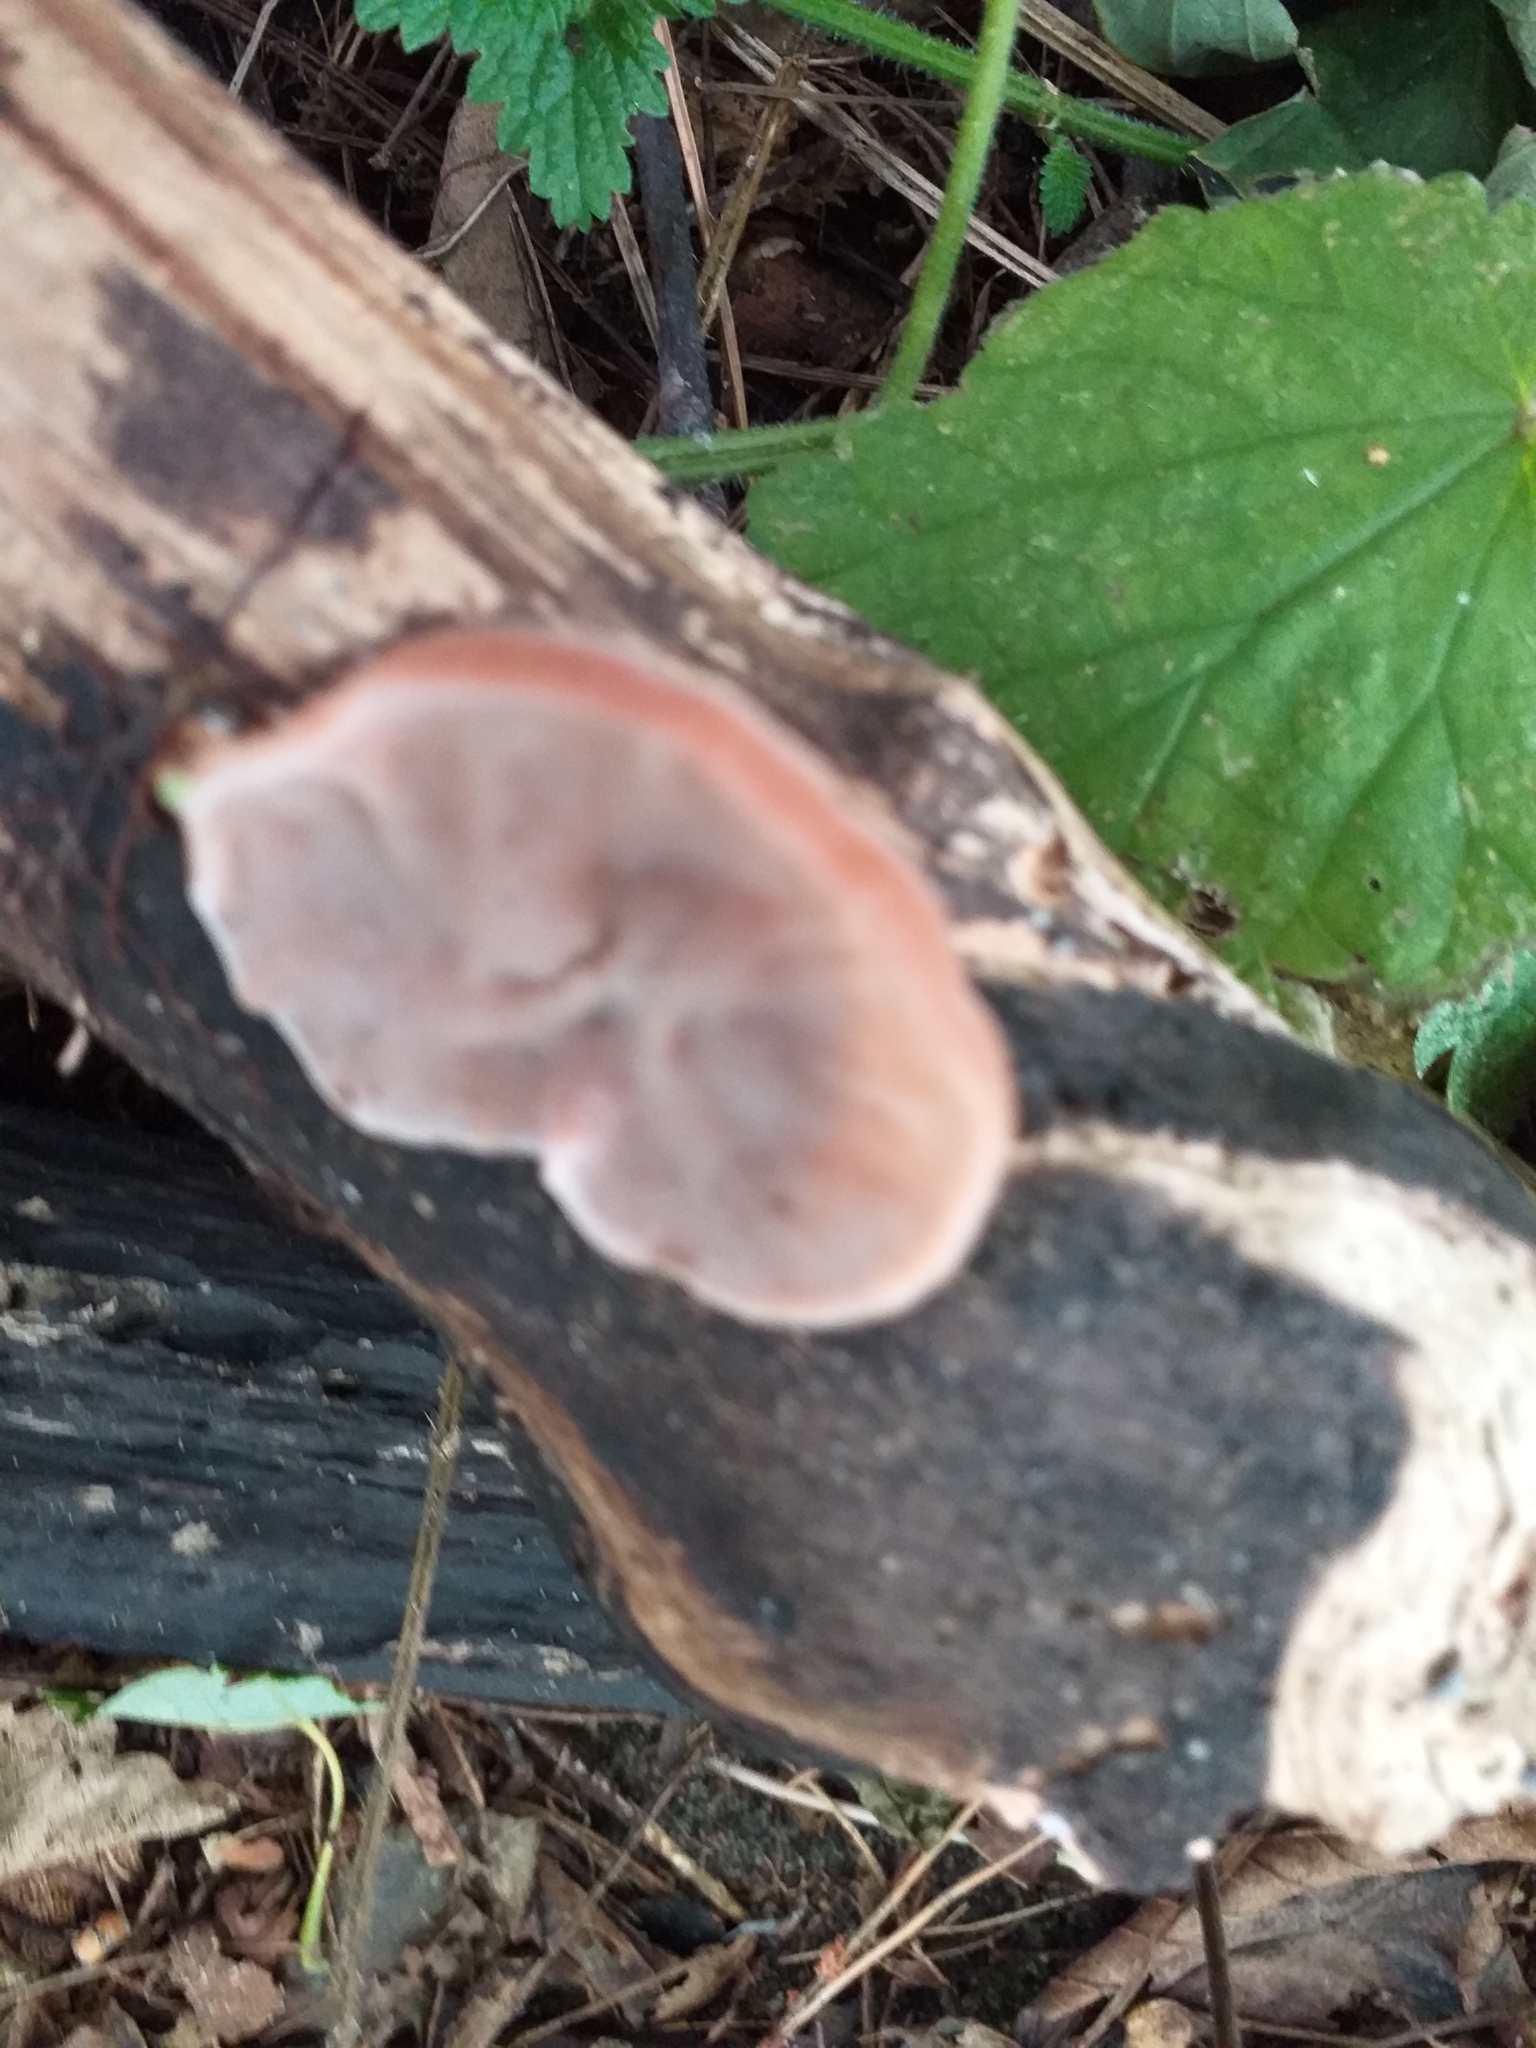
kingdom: Fungi
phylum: Basidiomycota
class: Agaricomycetes
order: Auriculariales
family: Auriculariaceae
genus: Auricularia
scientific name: Auricularia auricula-judae
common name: Jelly ear
